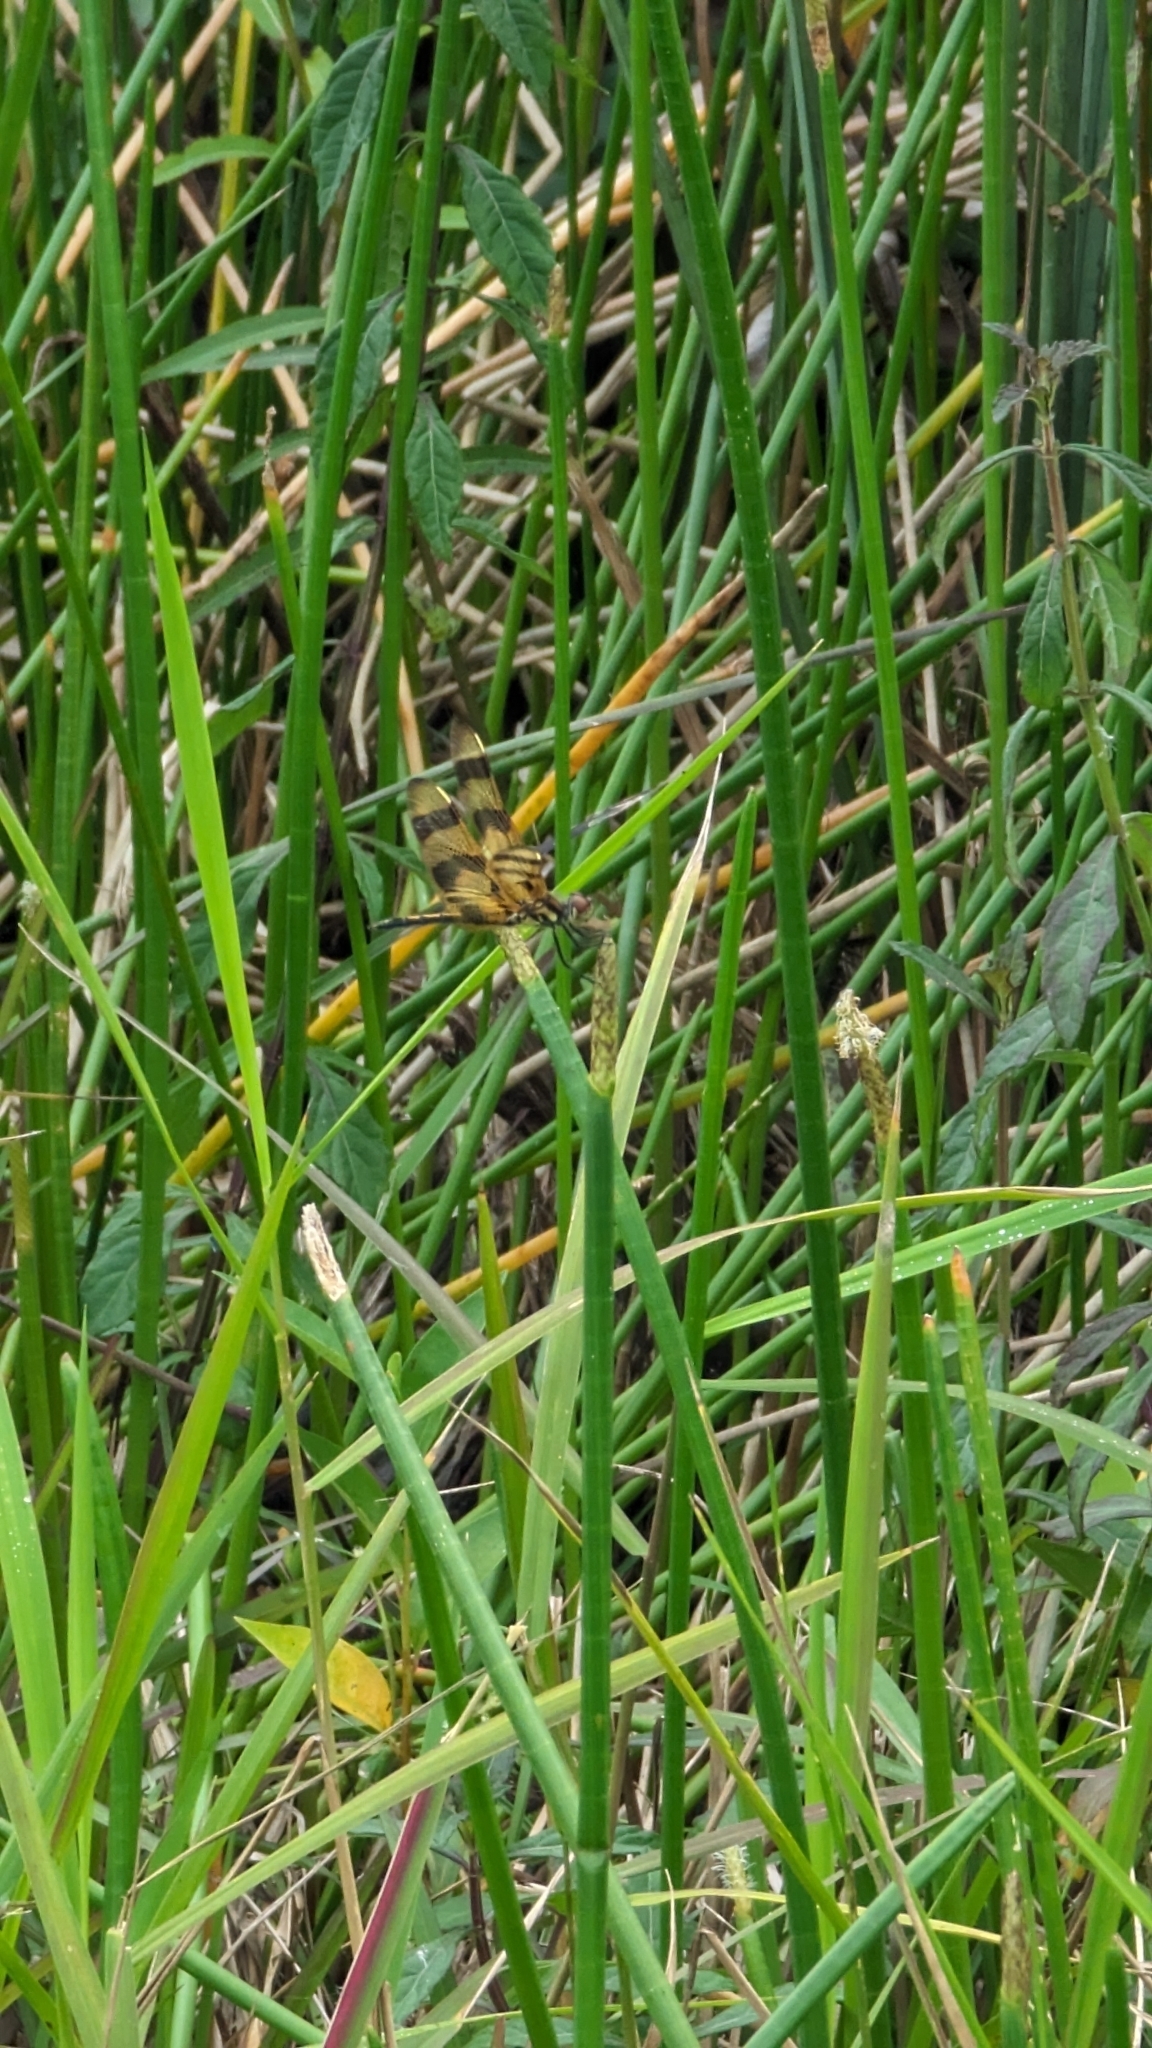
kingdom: Animalia
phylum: Arthropoda
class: Insecta
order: Odonata
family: Libellulidae
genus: Celithemis
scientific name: Celithemis eponina
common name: Halloween pennant
